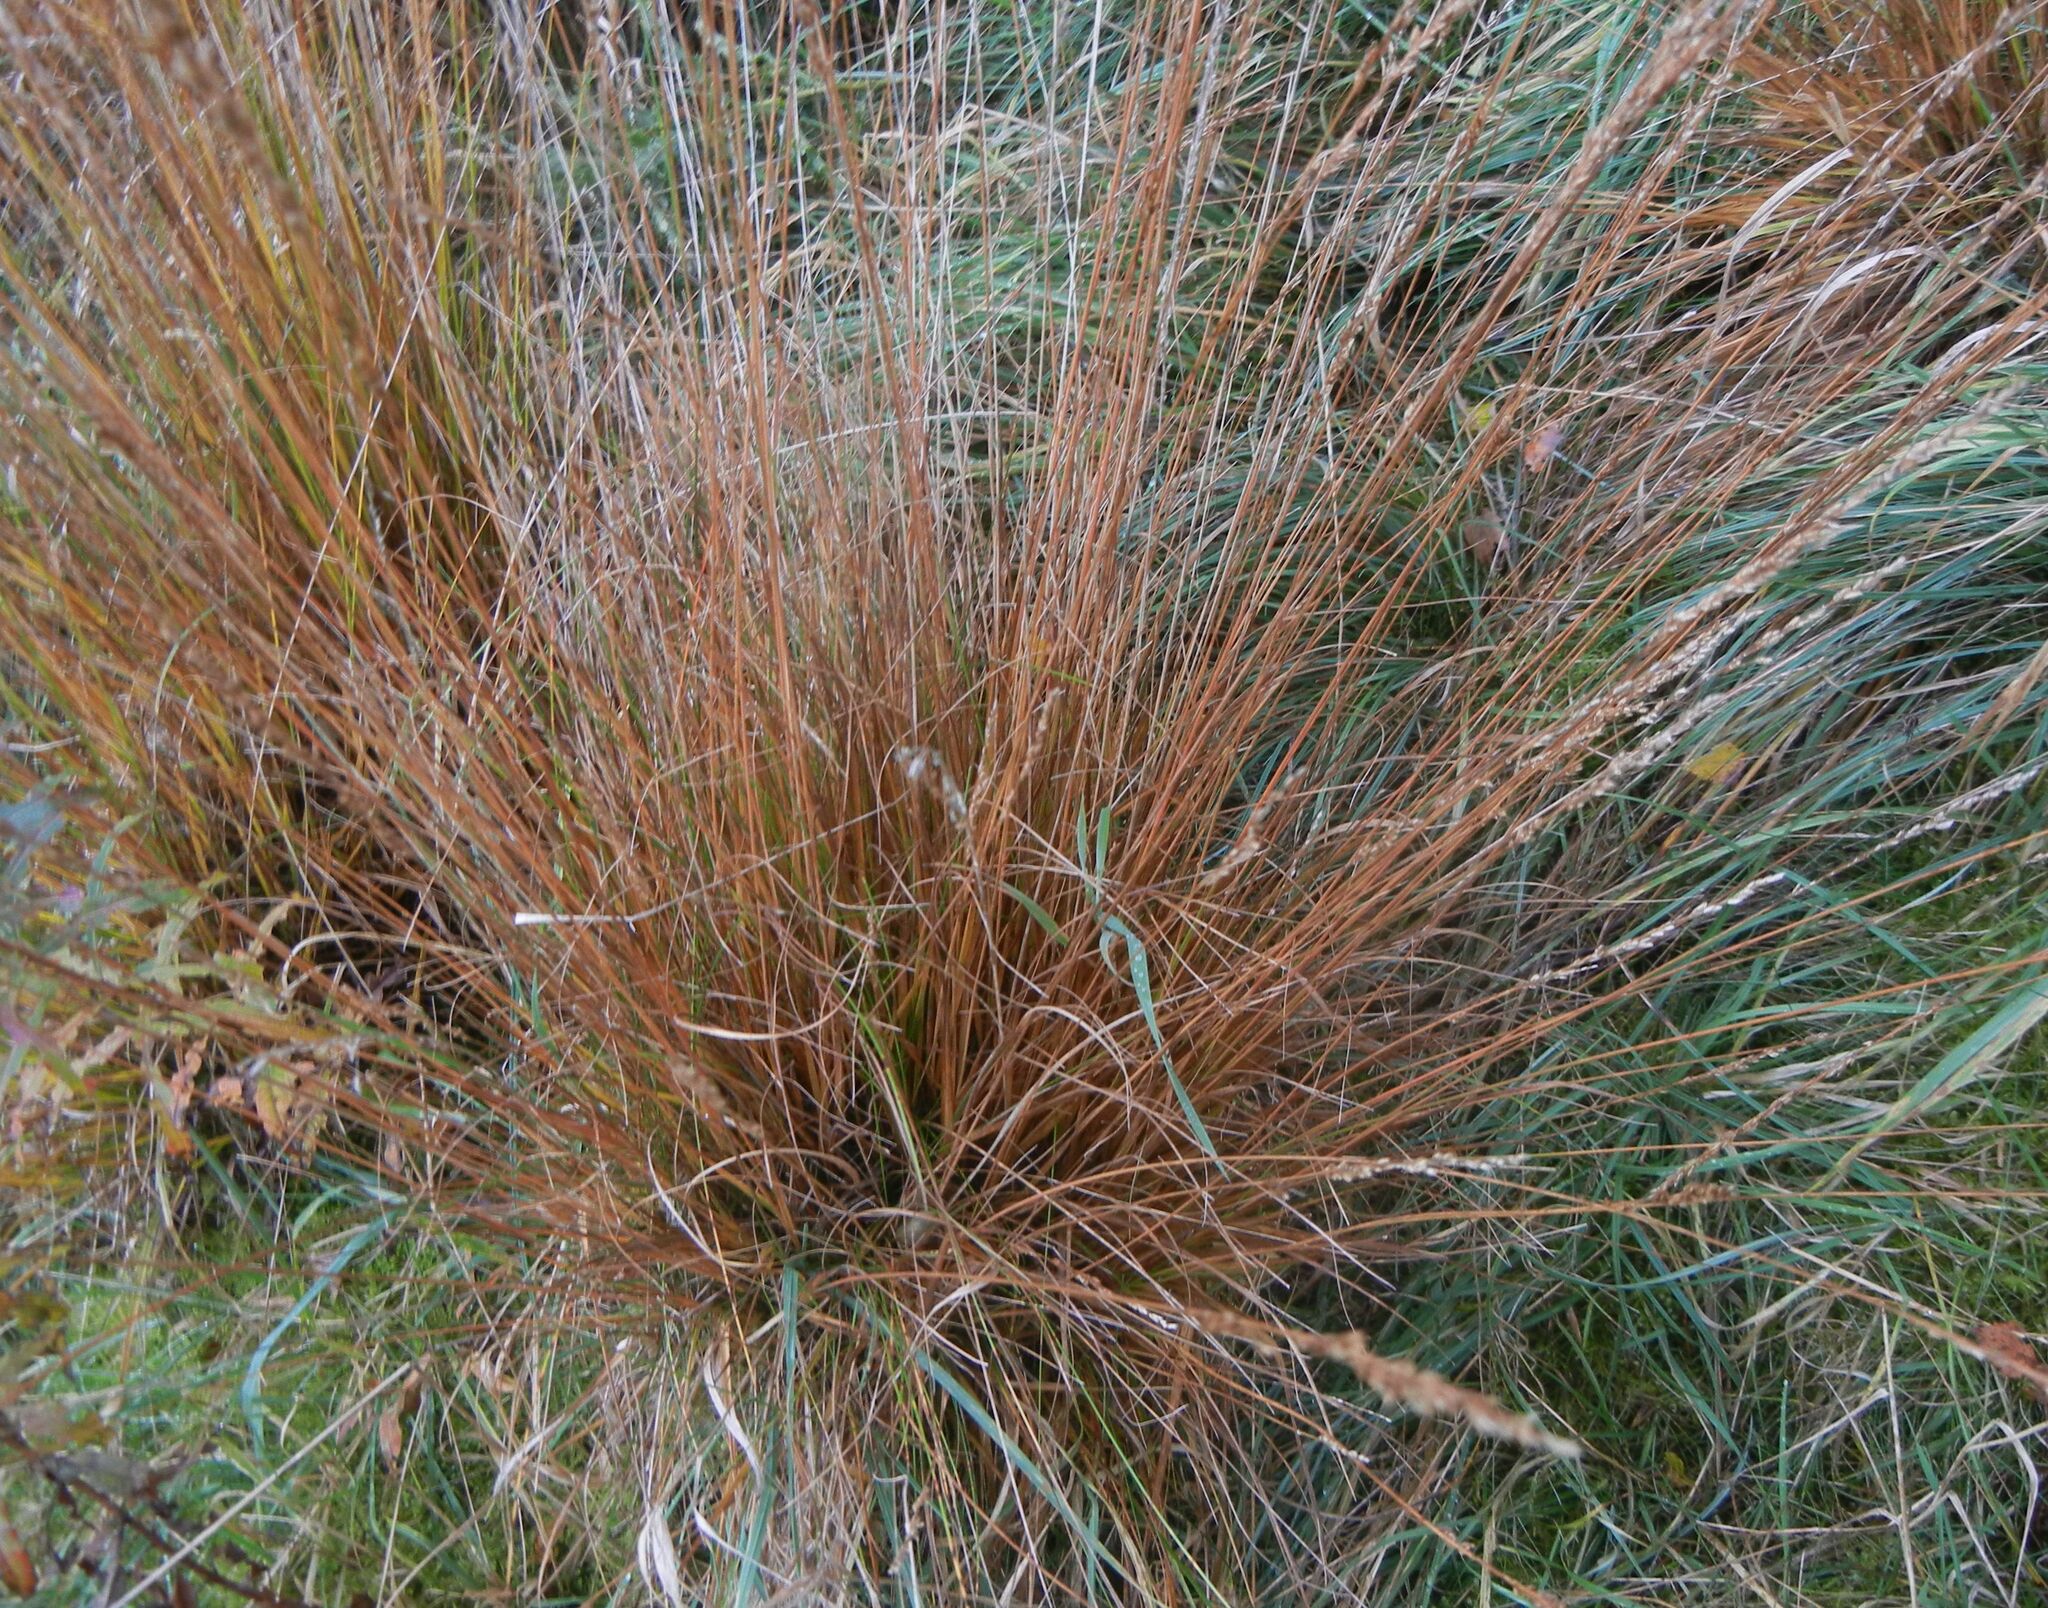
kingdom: Plantae
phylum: Tracheophyta
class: Liliopsida
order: Poales
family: Poaceae
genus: Molinia
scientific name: Molinia caerulea
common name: Purple moor-grass
